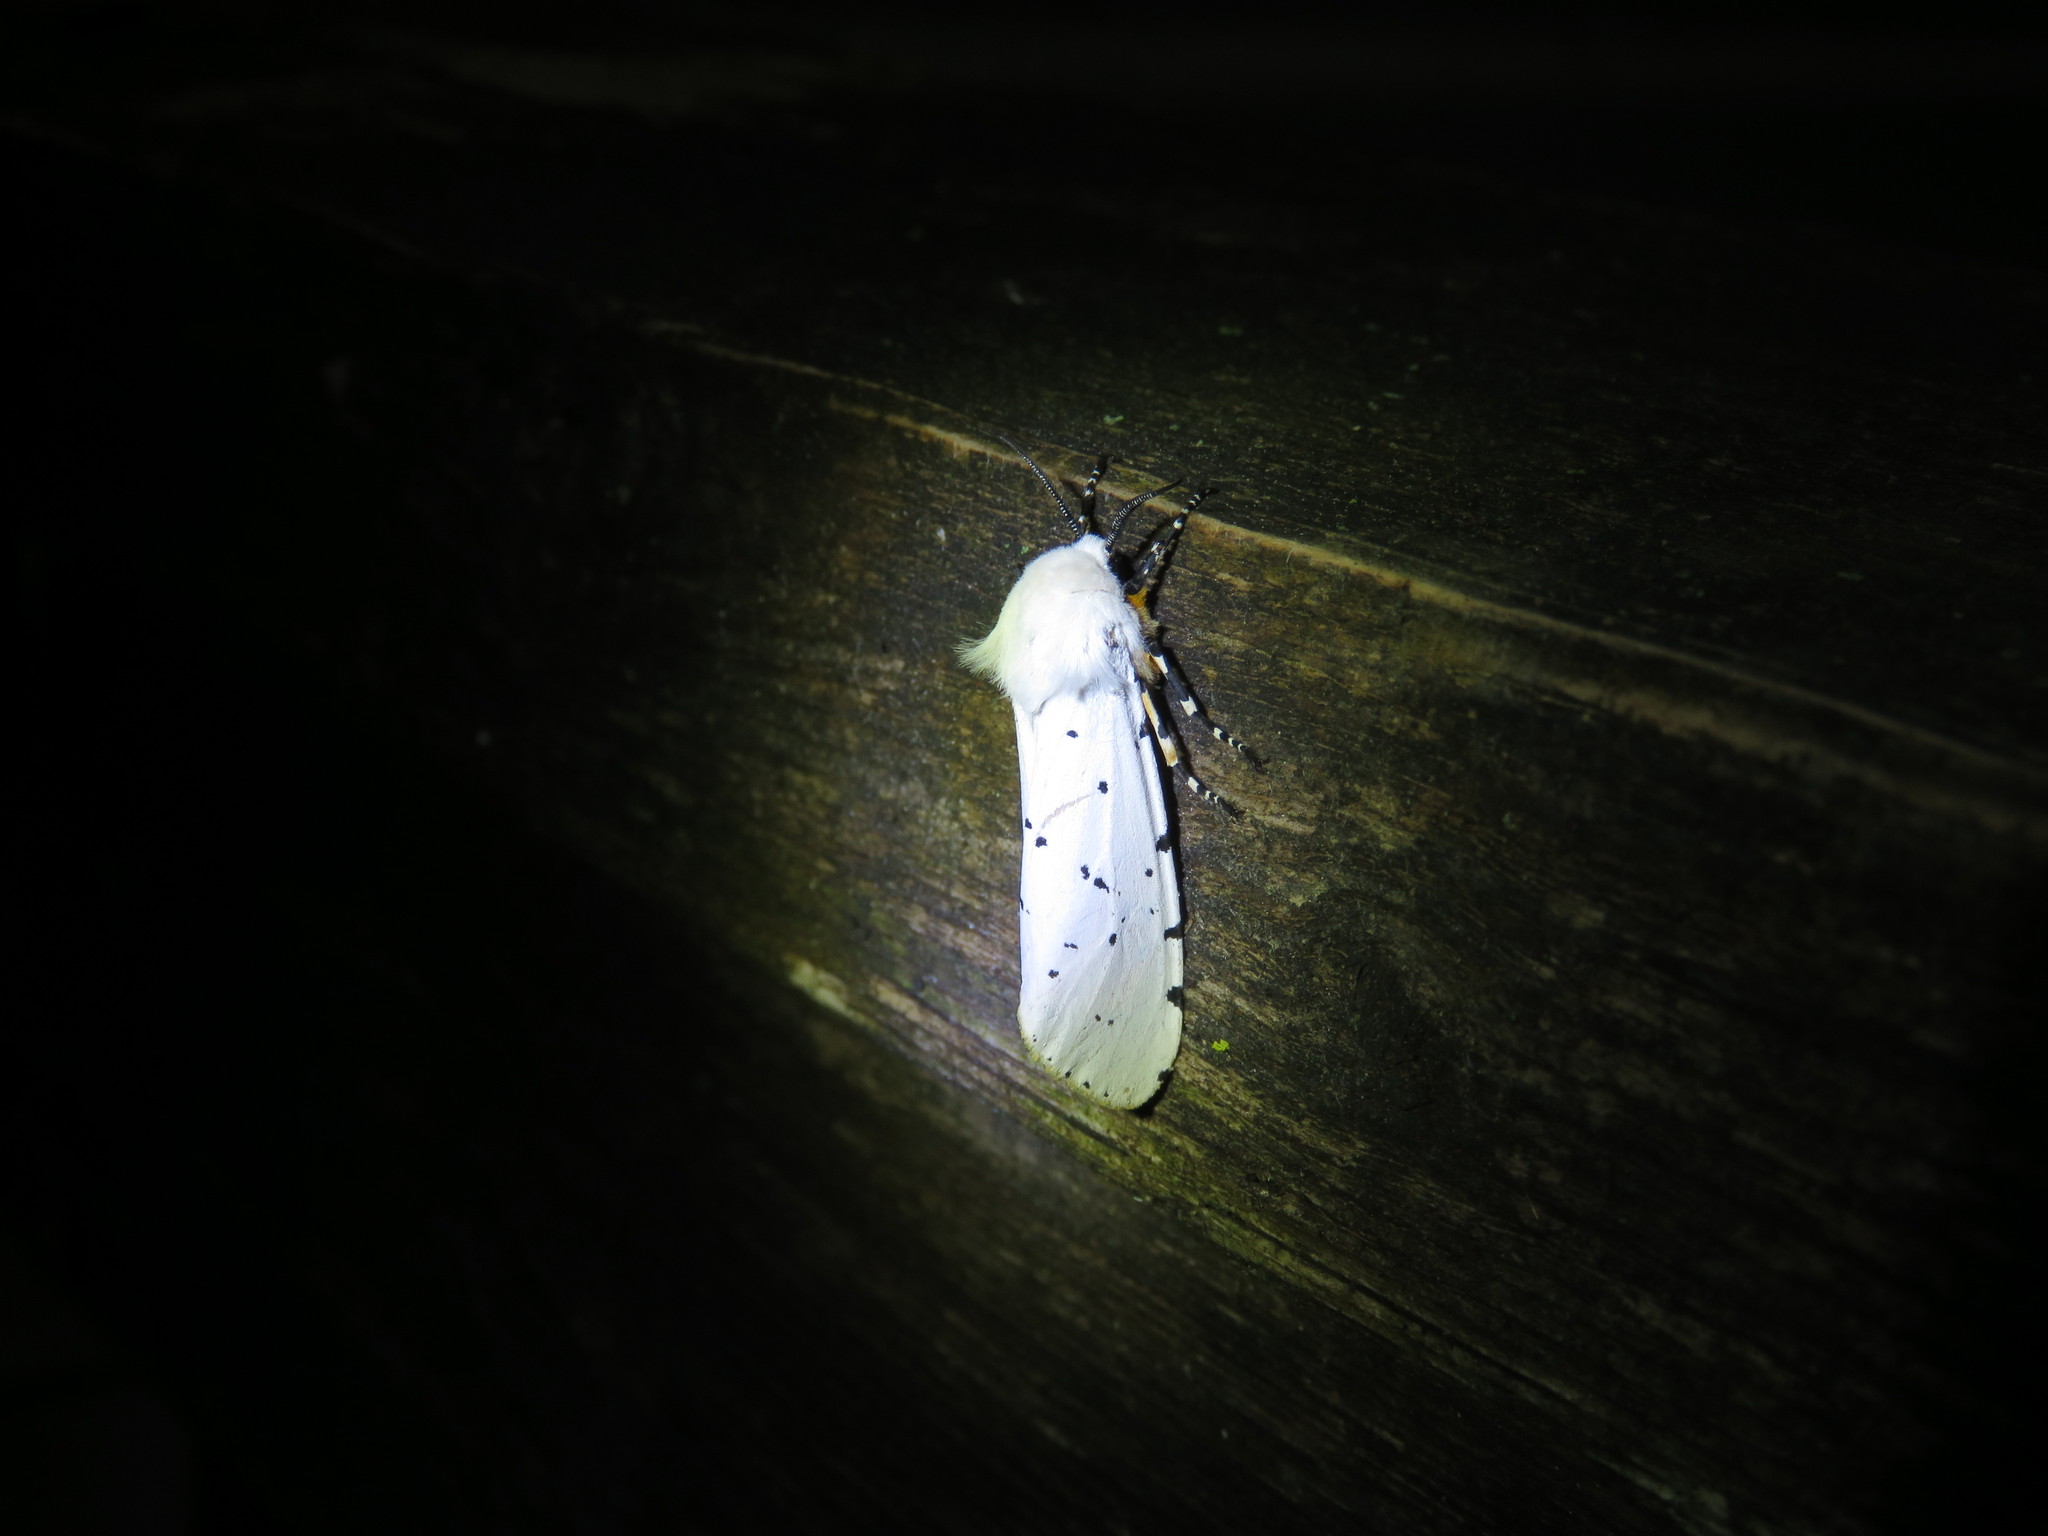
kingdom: Animalia
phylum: Arthropoda
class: Insecta
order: Lepidoptera
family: Erebidae
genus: Estigmene
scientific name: Estigmene acrea
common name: Salt marsh moth
